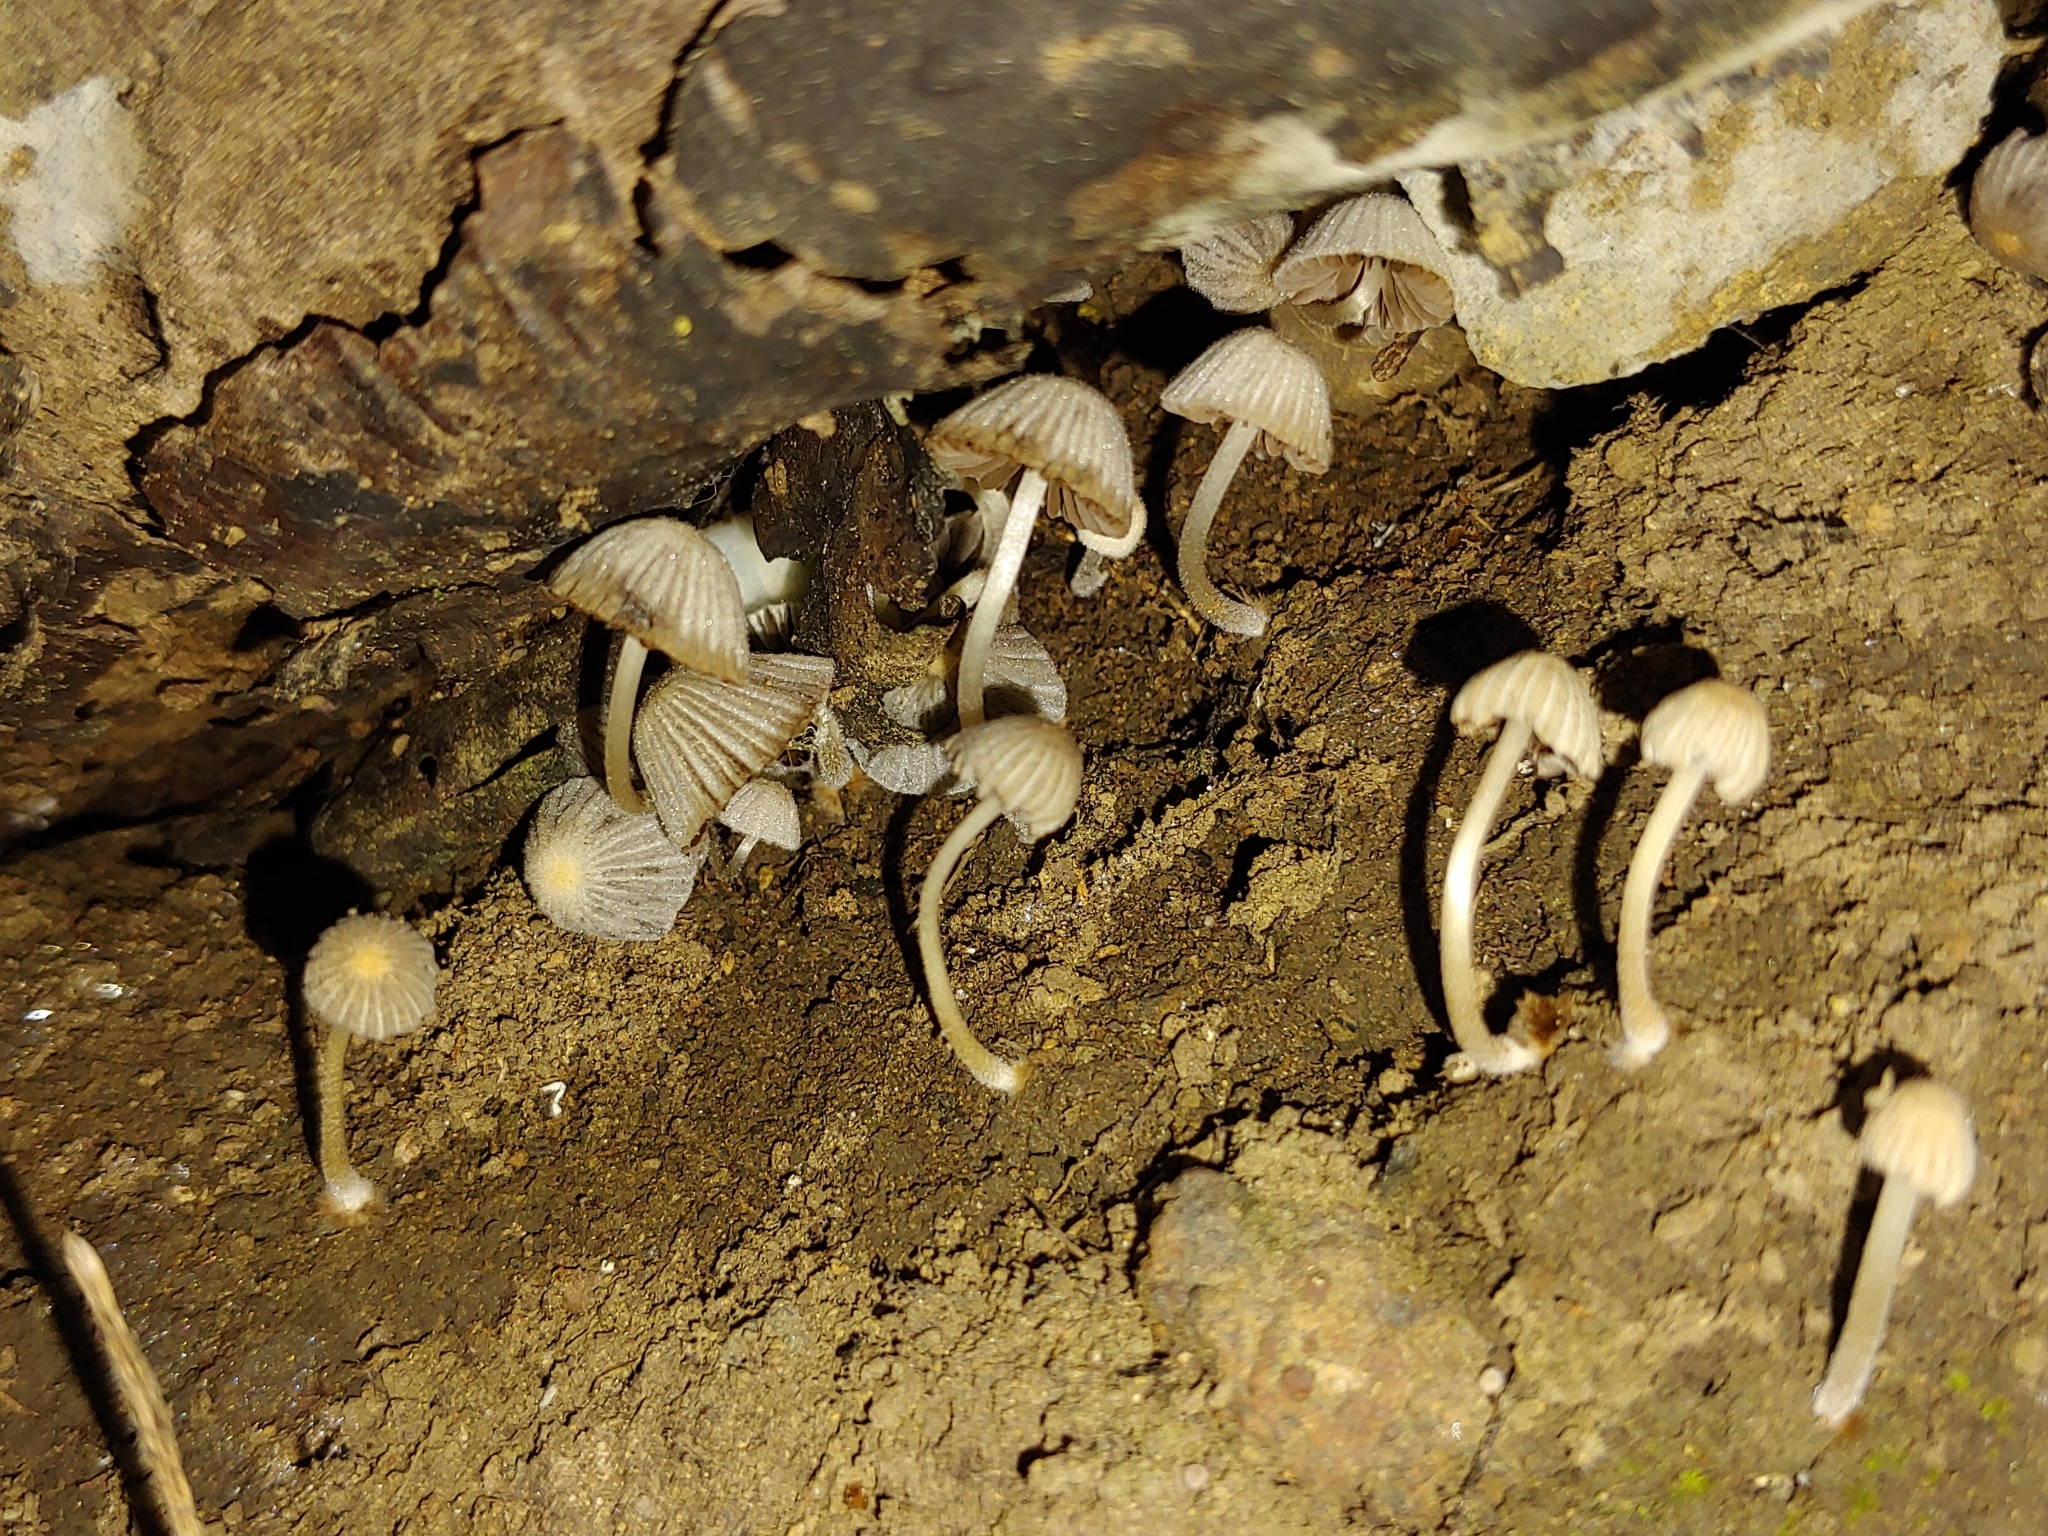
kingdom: Fungi
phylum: Basidiomycota
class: Agaricomycetes
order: Agaricales
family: Psathyrellaceae
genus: Coprinellus
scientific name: Coprinellus disseminatus
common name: Fairies' bonnets
